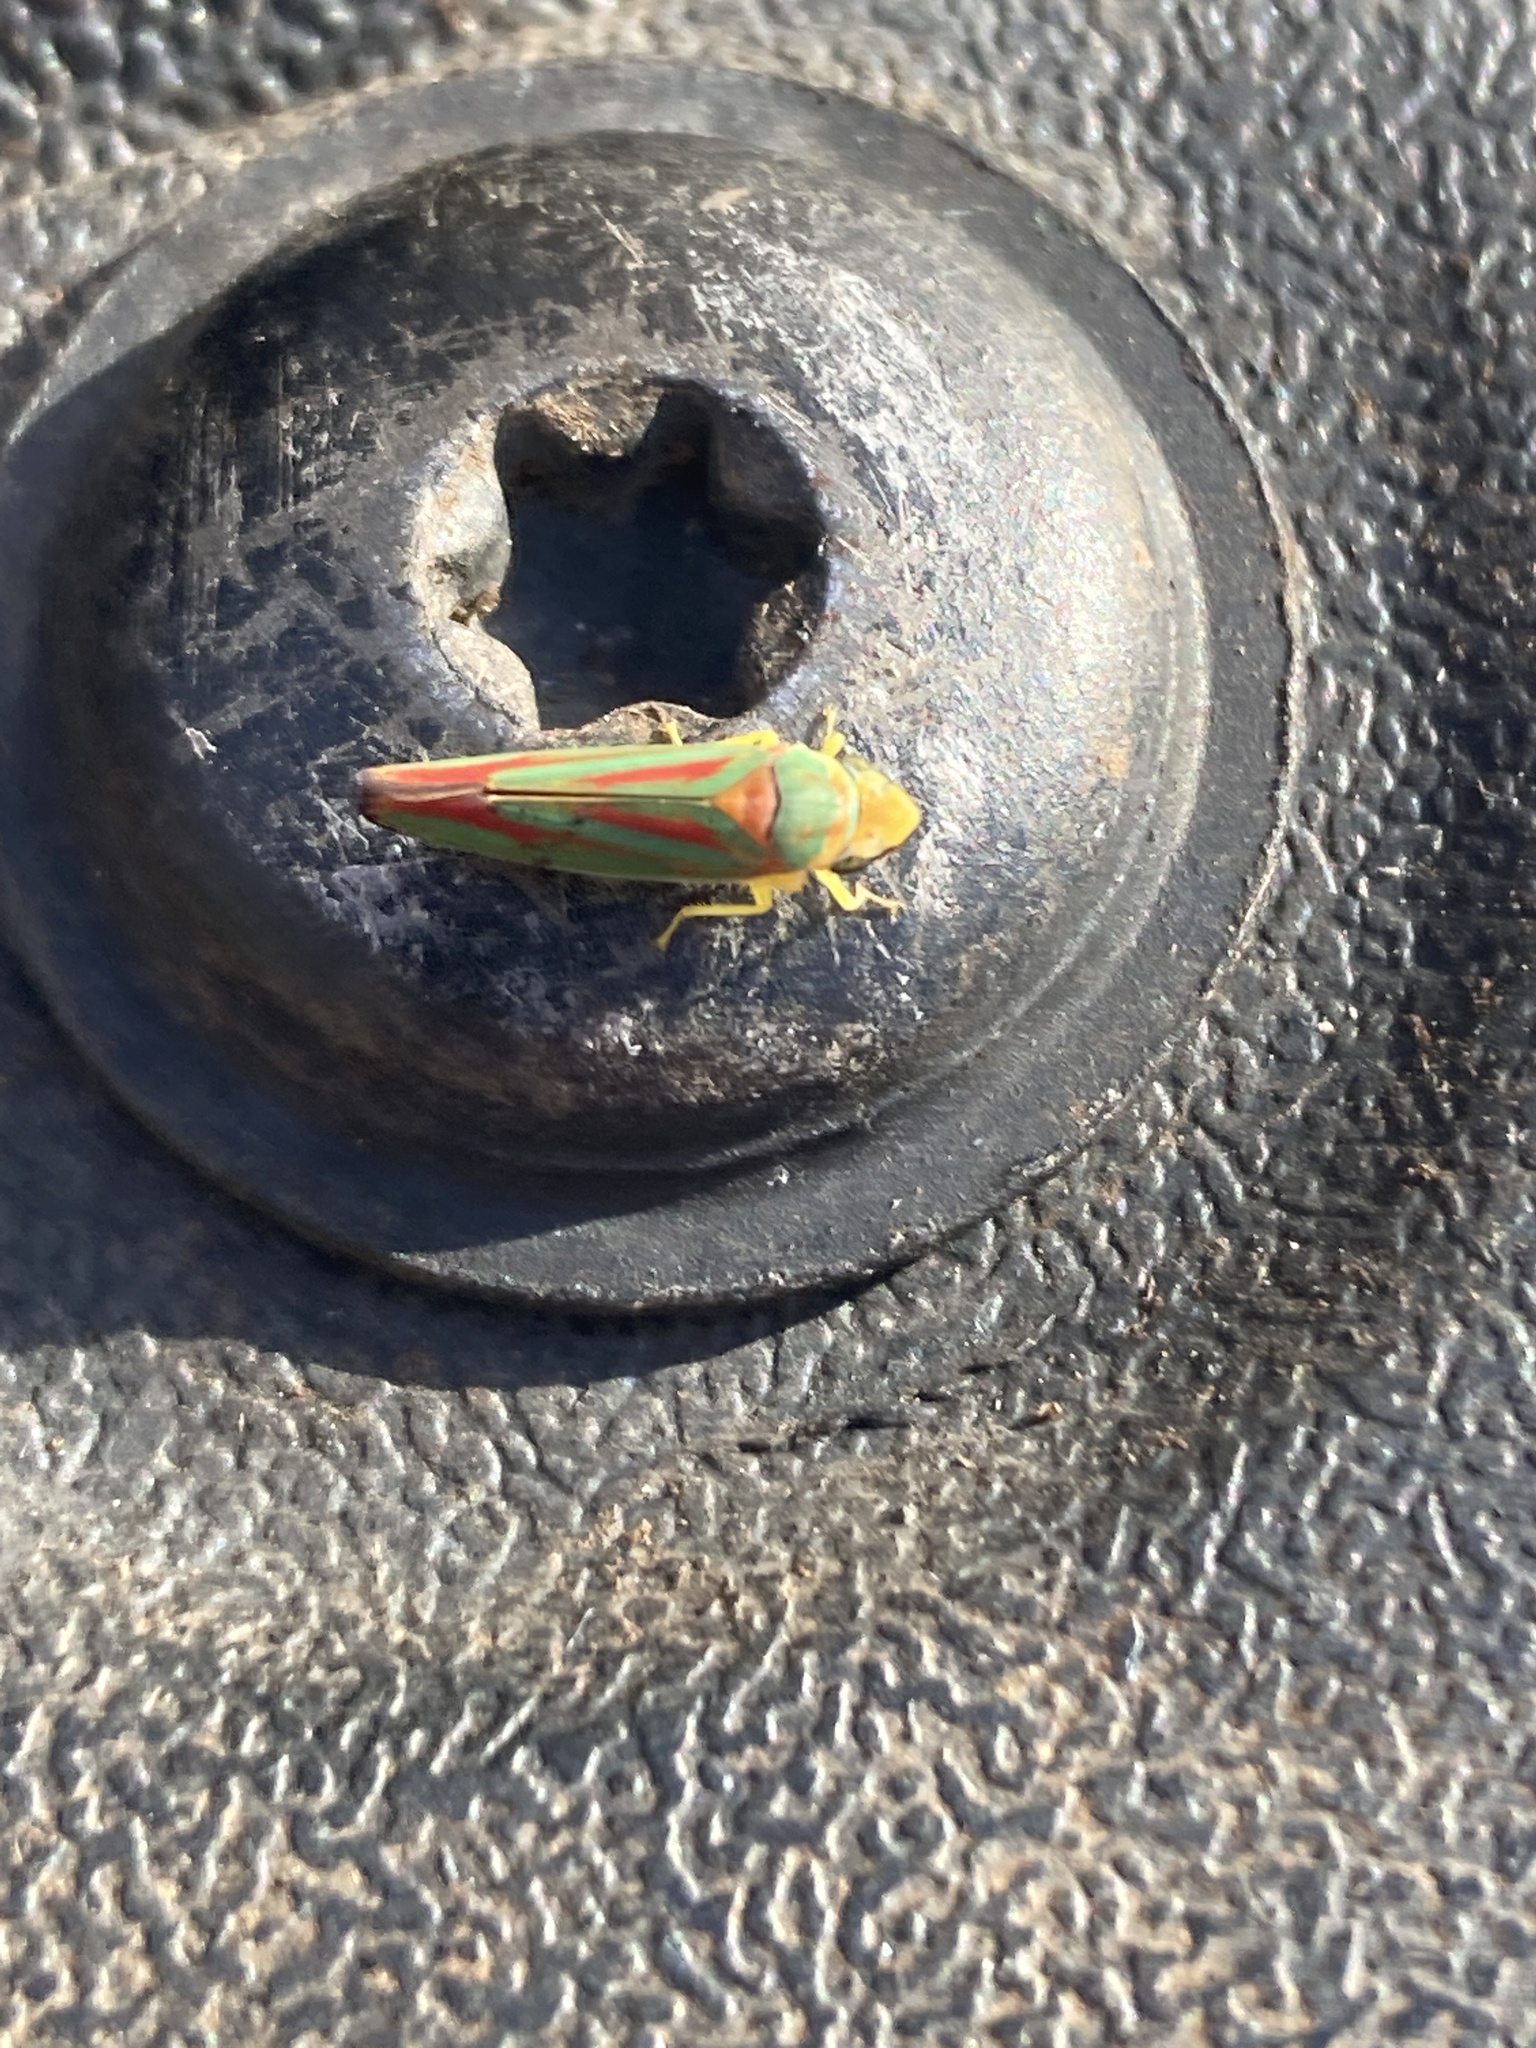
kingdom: Animalia
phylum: Arthropoda
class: Insecta
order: Hemiptera
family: Cicadellidae
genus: Graphocephala
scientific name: Graphocephala coccinea
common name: Candy-striped leafhopper
